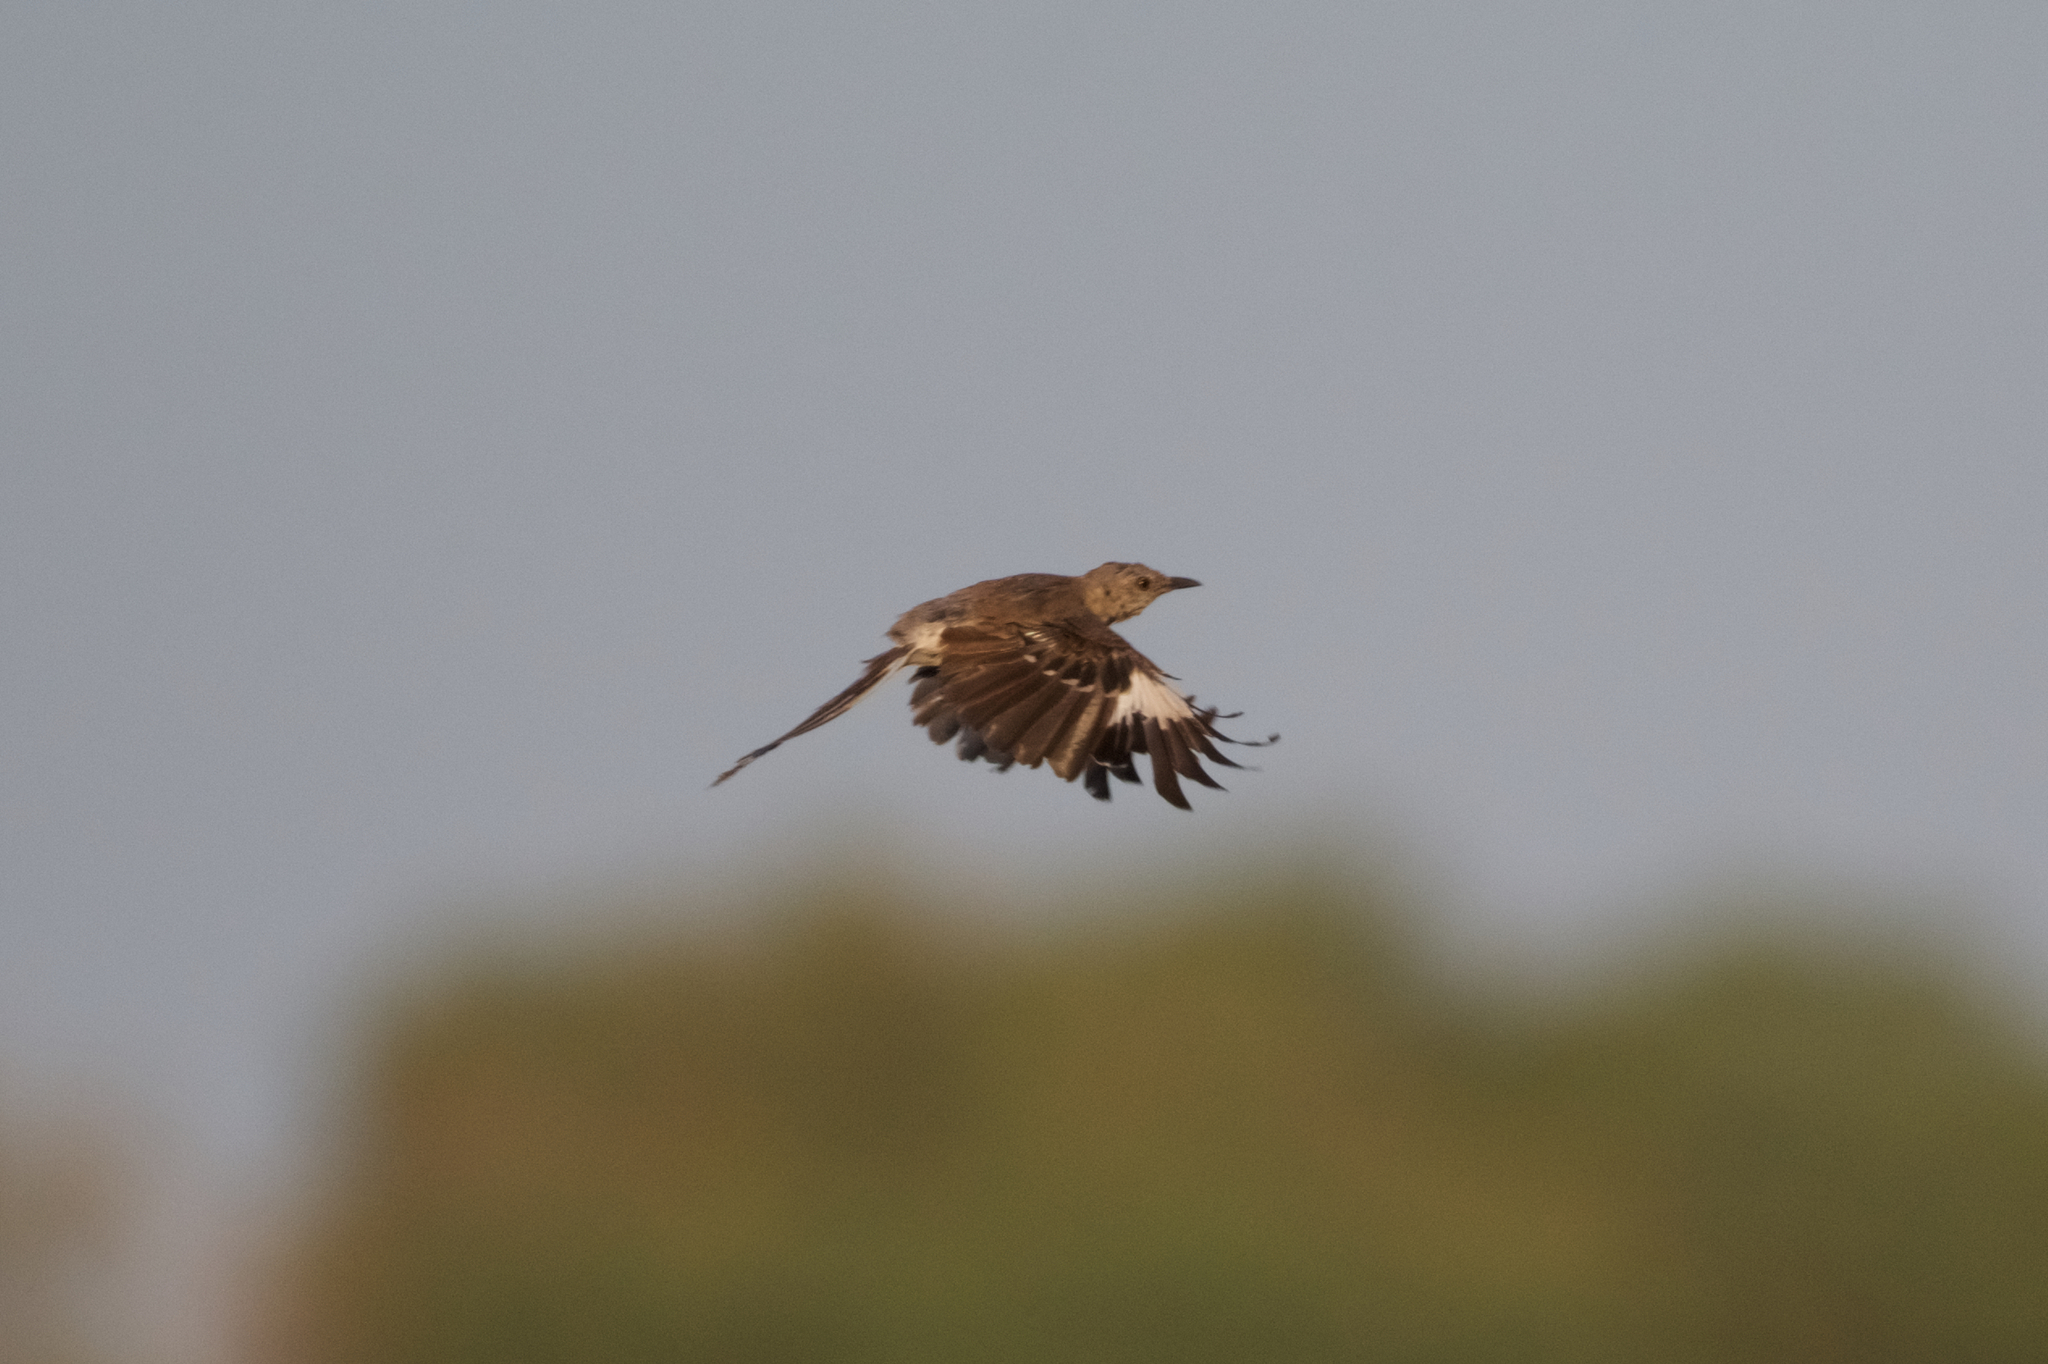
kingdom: Animalia
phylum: Chordata
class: Aves
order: Passeriformes
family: Mimidae
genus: Mimus
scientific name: Mimus polyglottos
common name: Northern mockingbird
